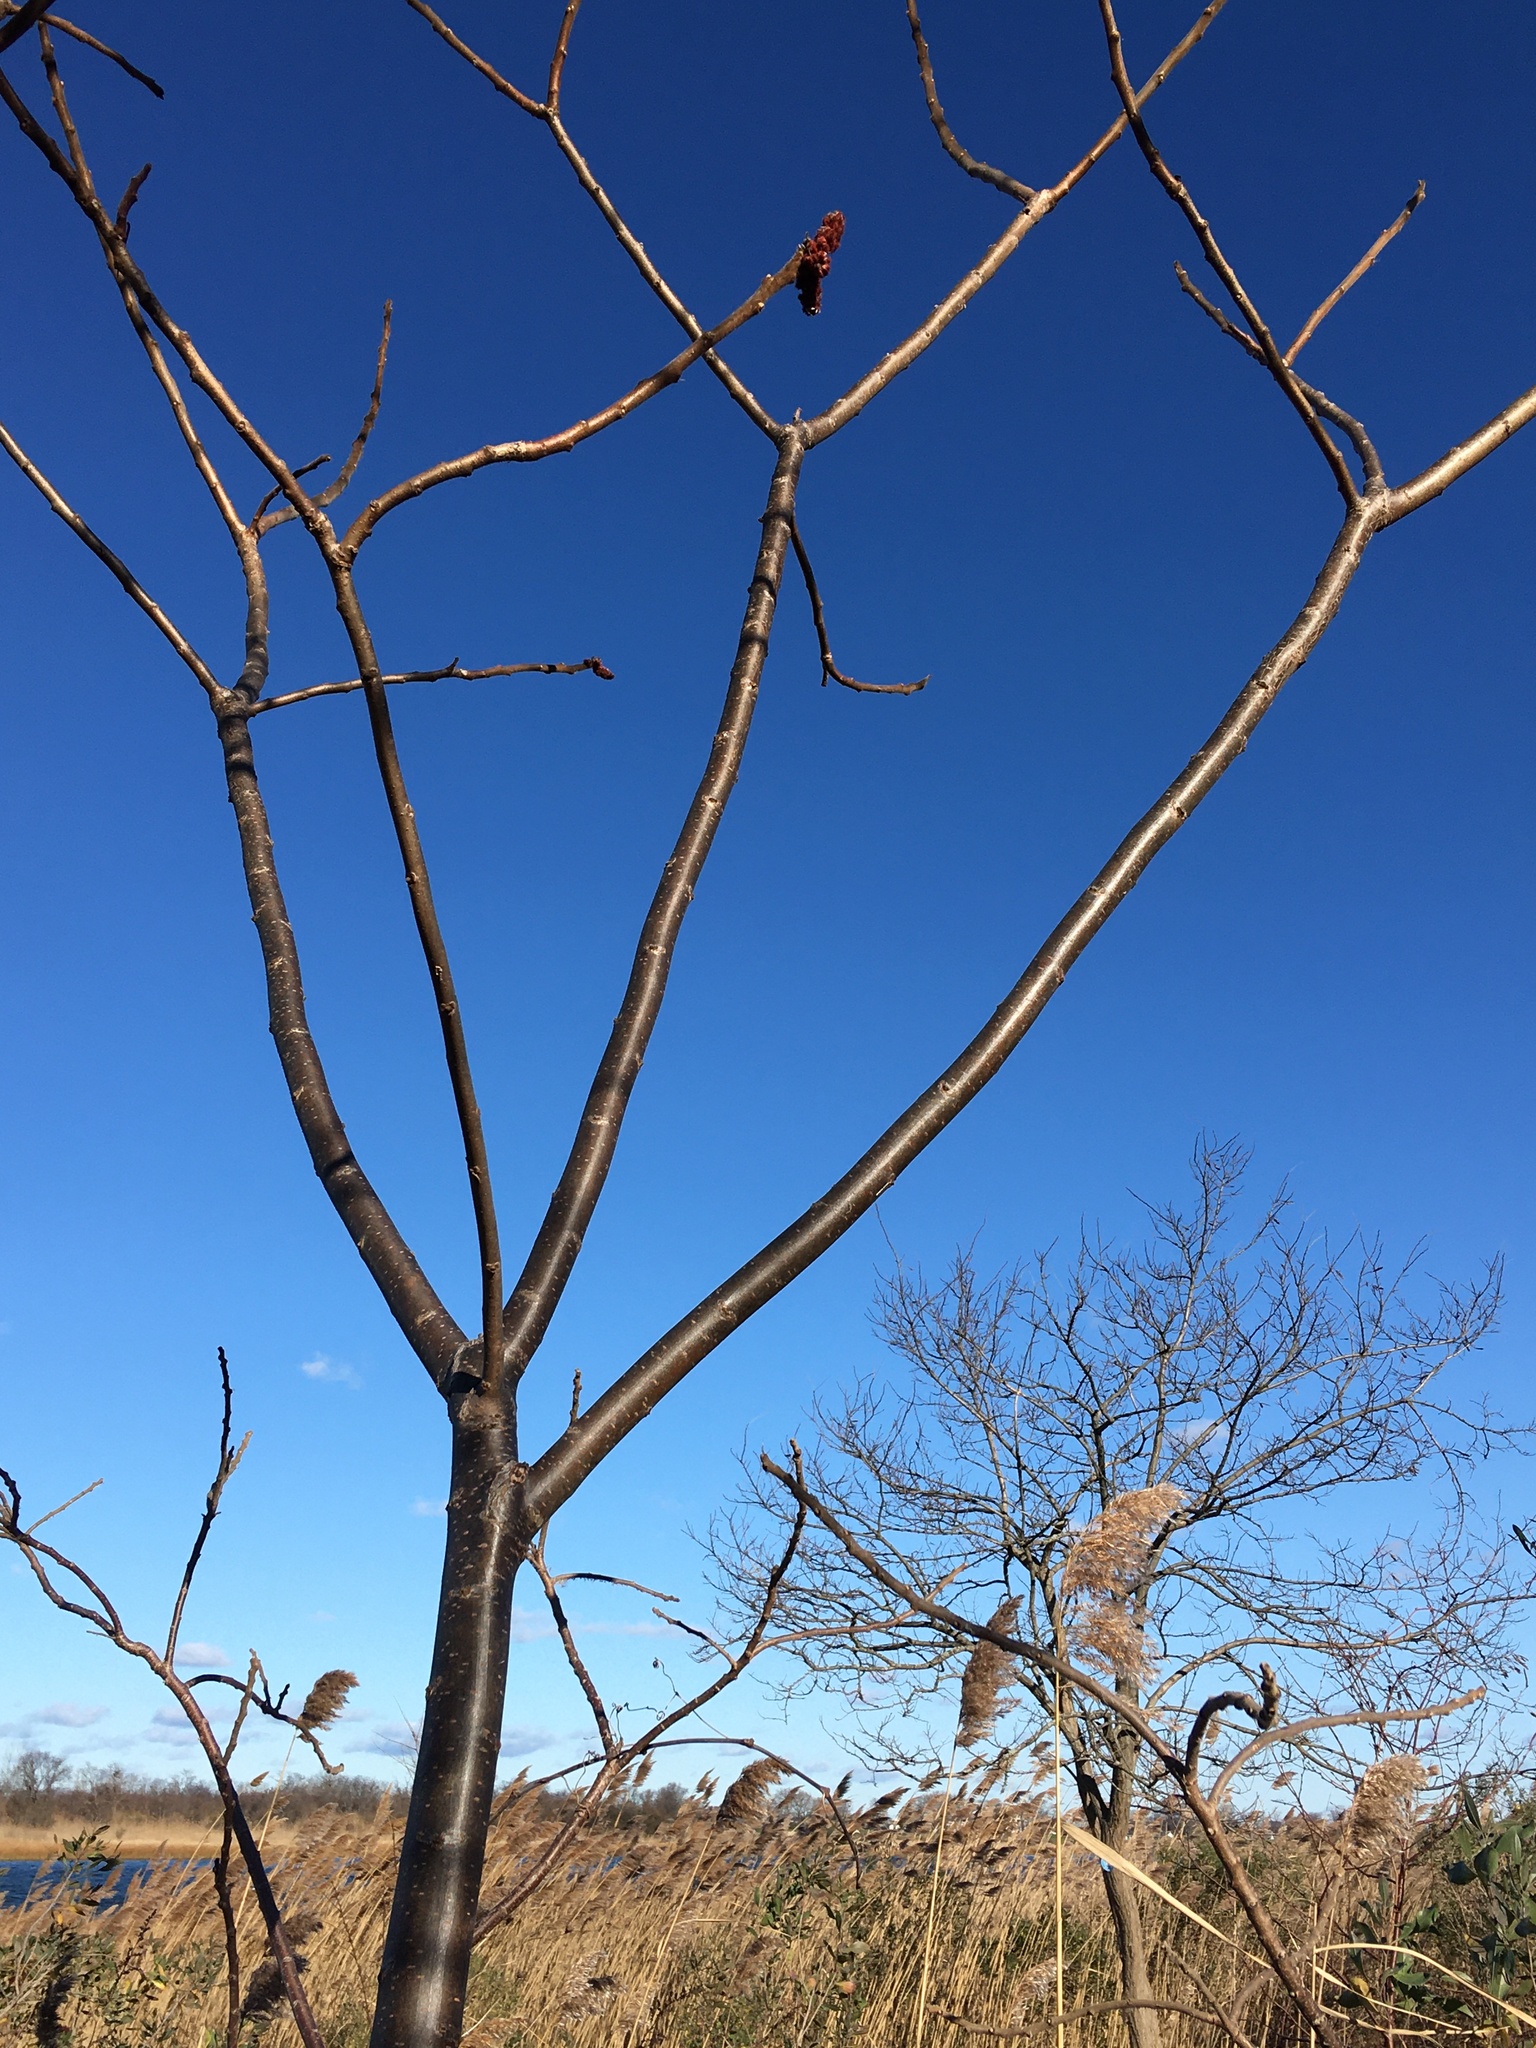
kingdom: Plantae
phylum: Tracheophyta
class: Magnoliopsida
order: Sapindales
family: Anacardiaceae
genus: Rhus
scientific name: Rhus copallina
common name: Shining sumac
